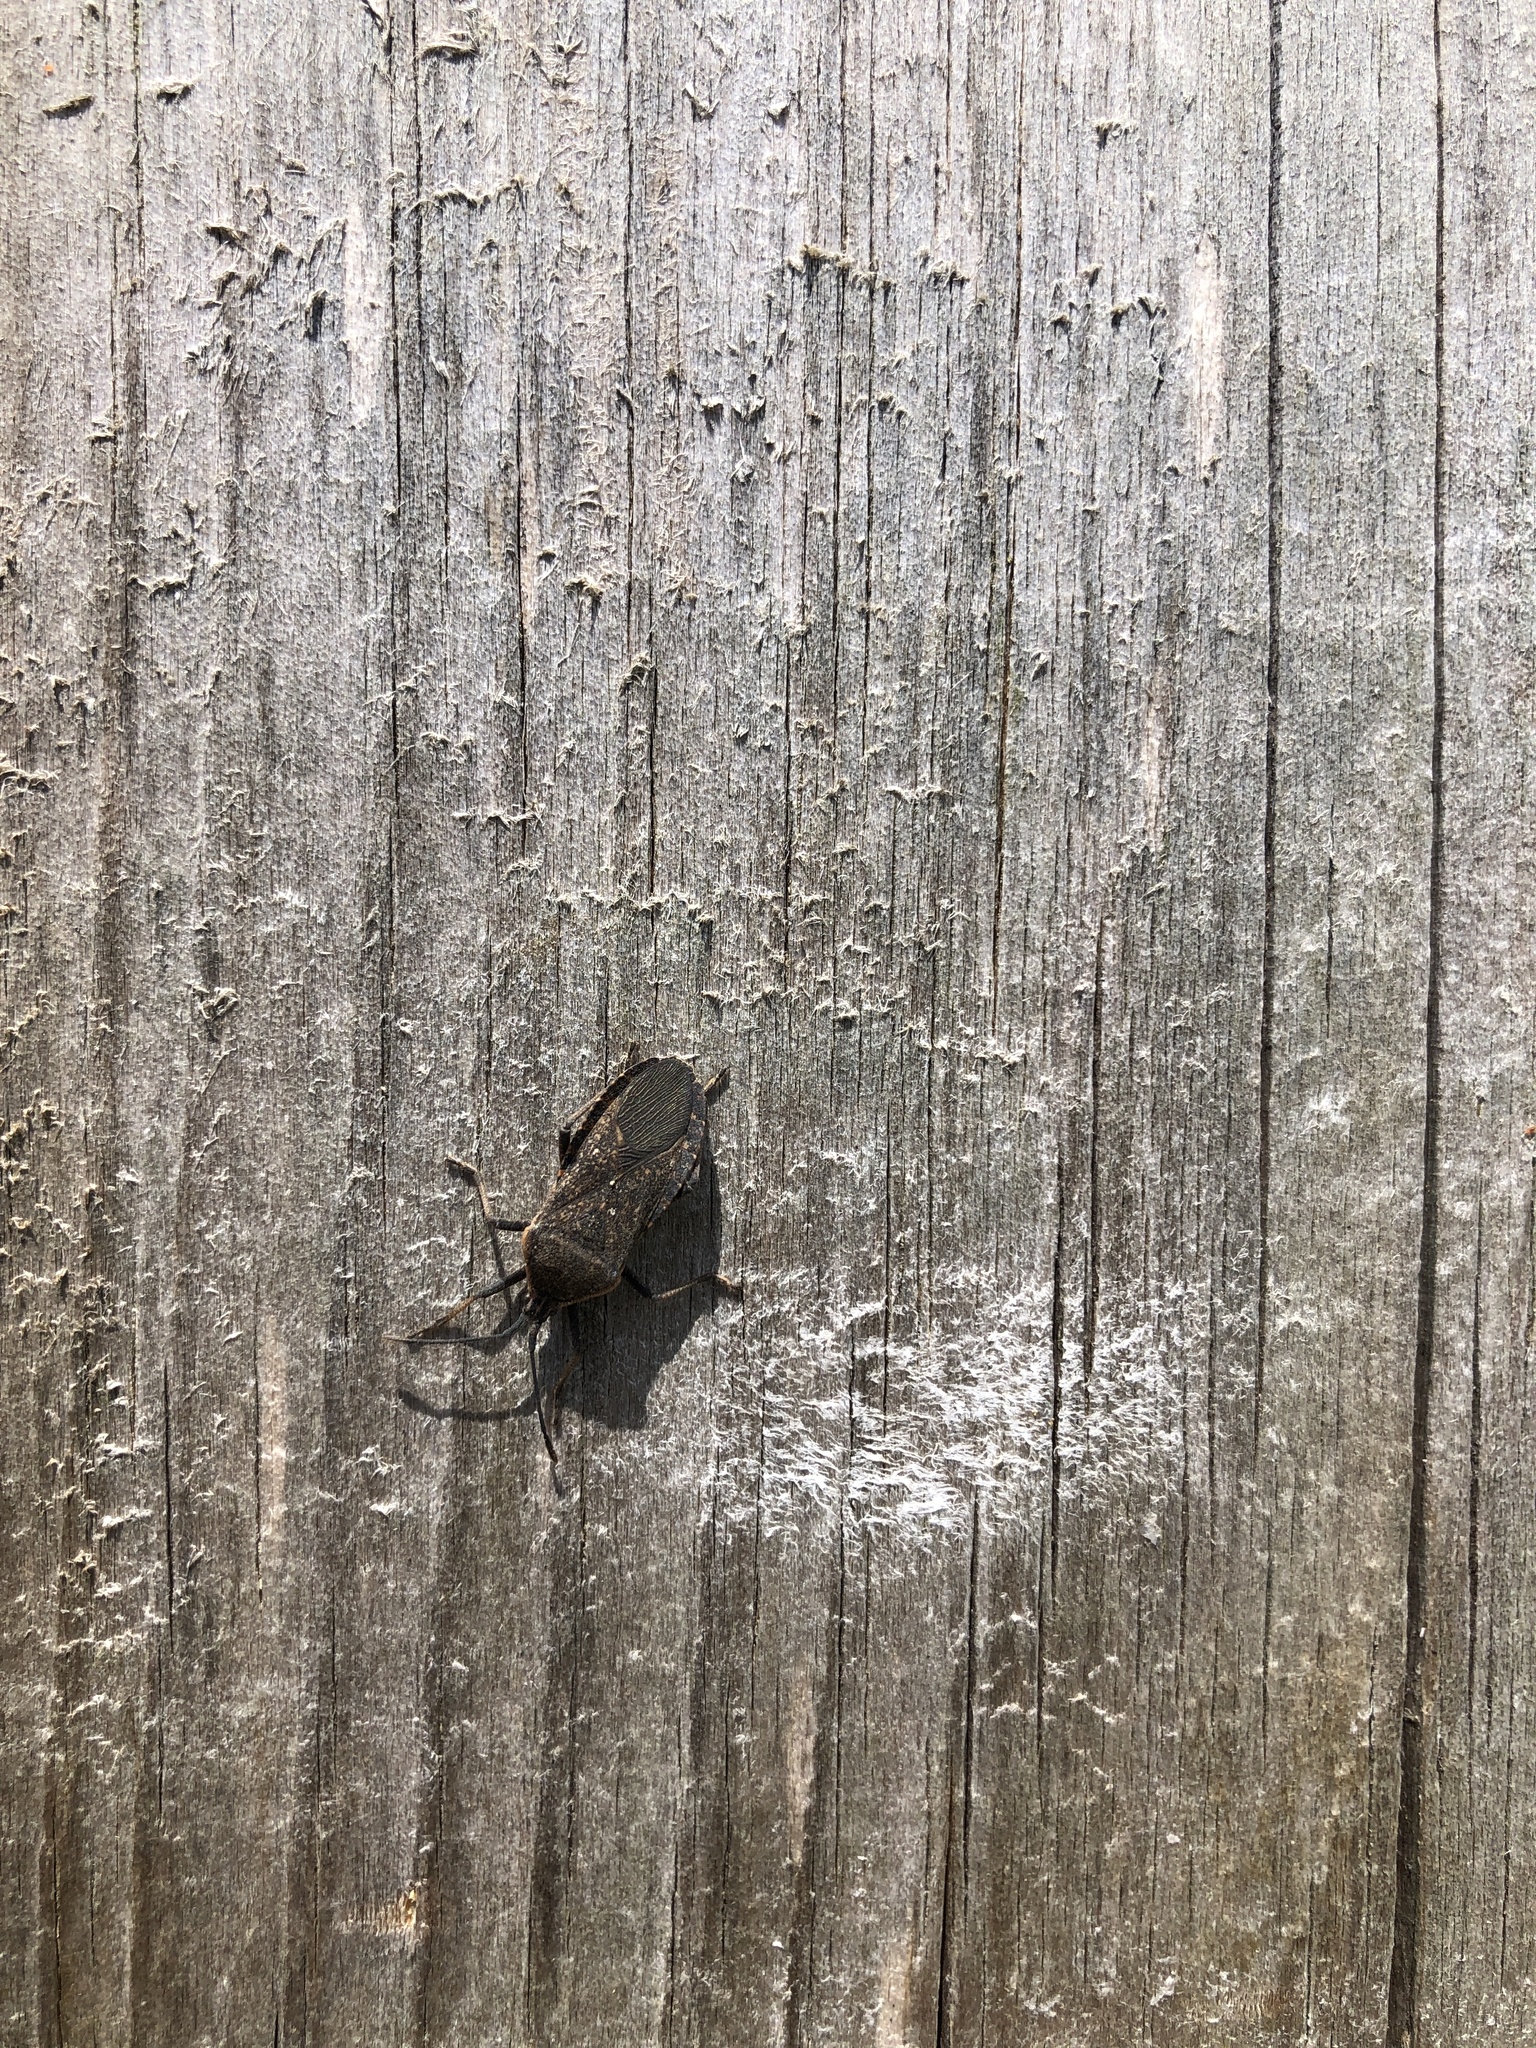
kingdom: Animalia
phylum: Arthropoda
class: Insecta
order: Hemiptera
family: Coreidae
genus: Anasa
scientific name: Anasa tristis
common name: Squash bug
